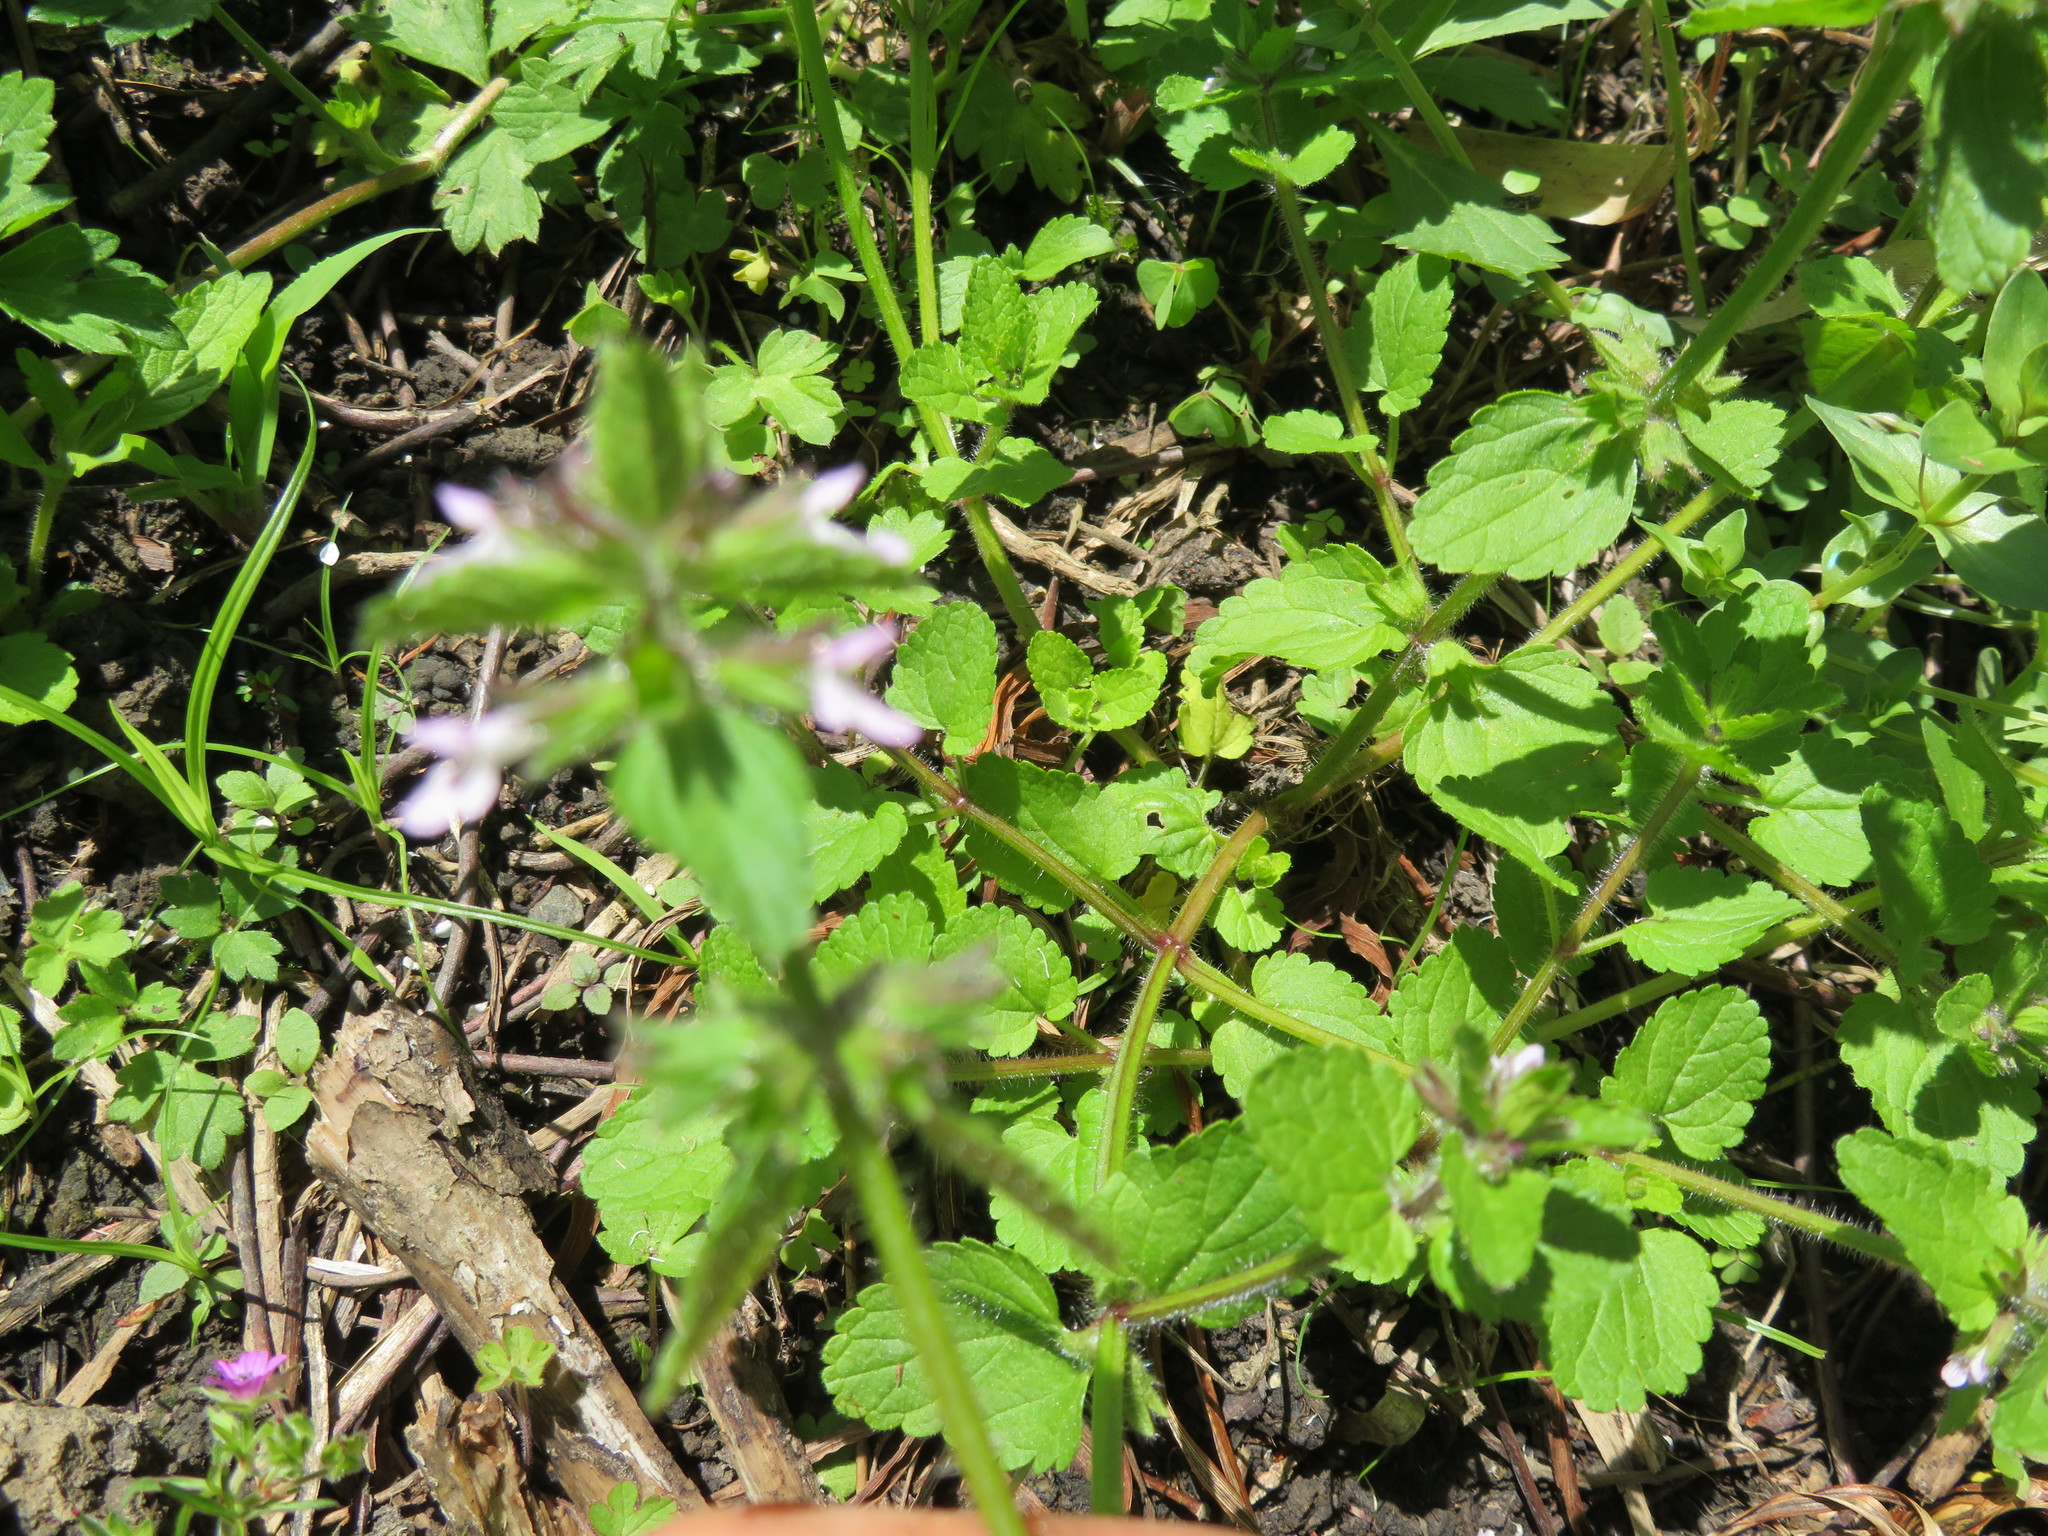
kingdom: Plantae
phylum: Tracheophyta
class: Magnoliopsida
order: Lamiales
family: Lamiaceae
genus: Stachys
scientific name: Stachys arvensis
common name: Field woundwort
